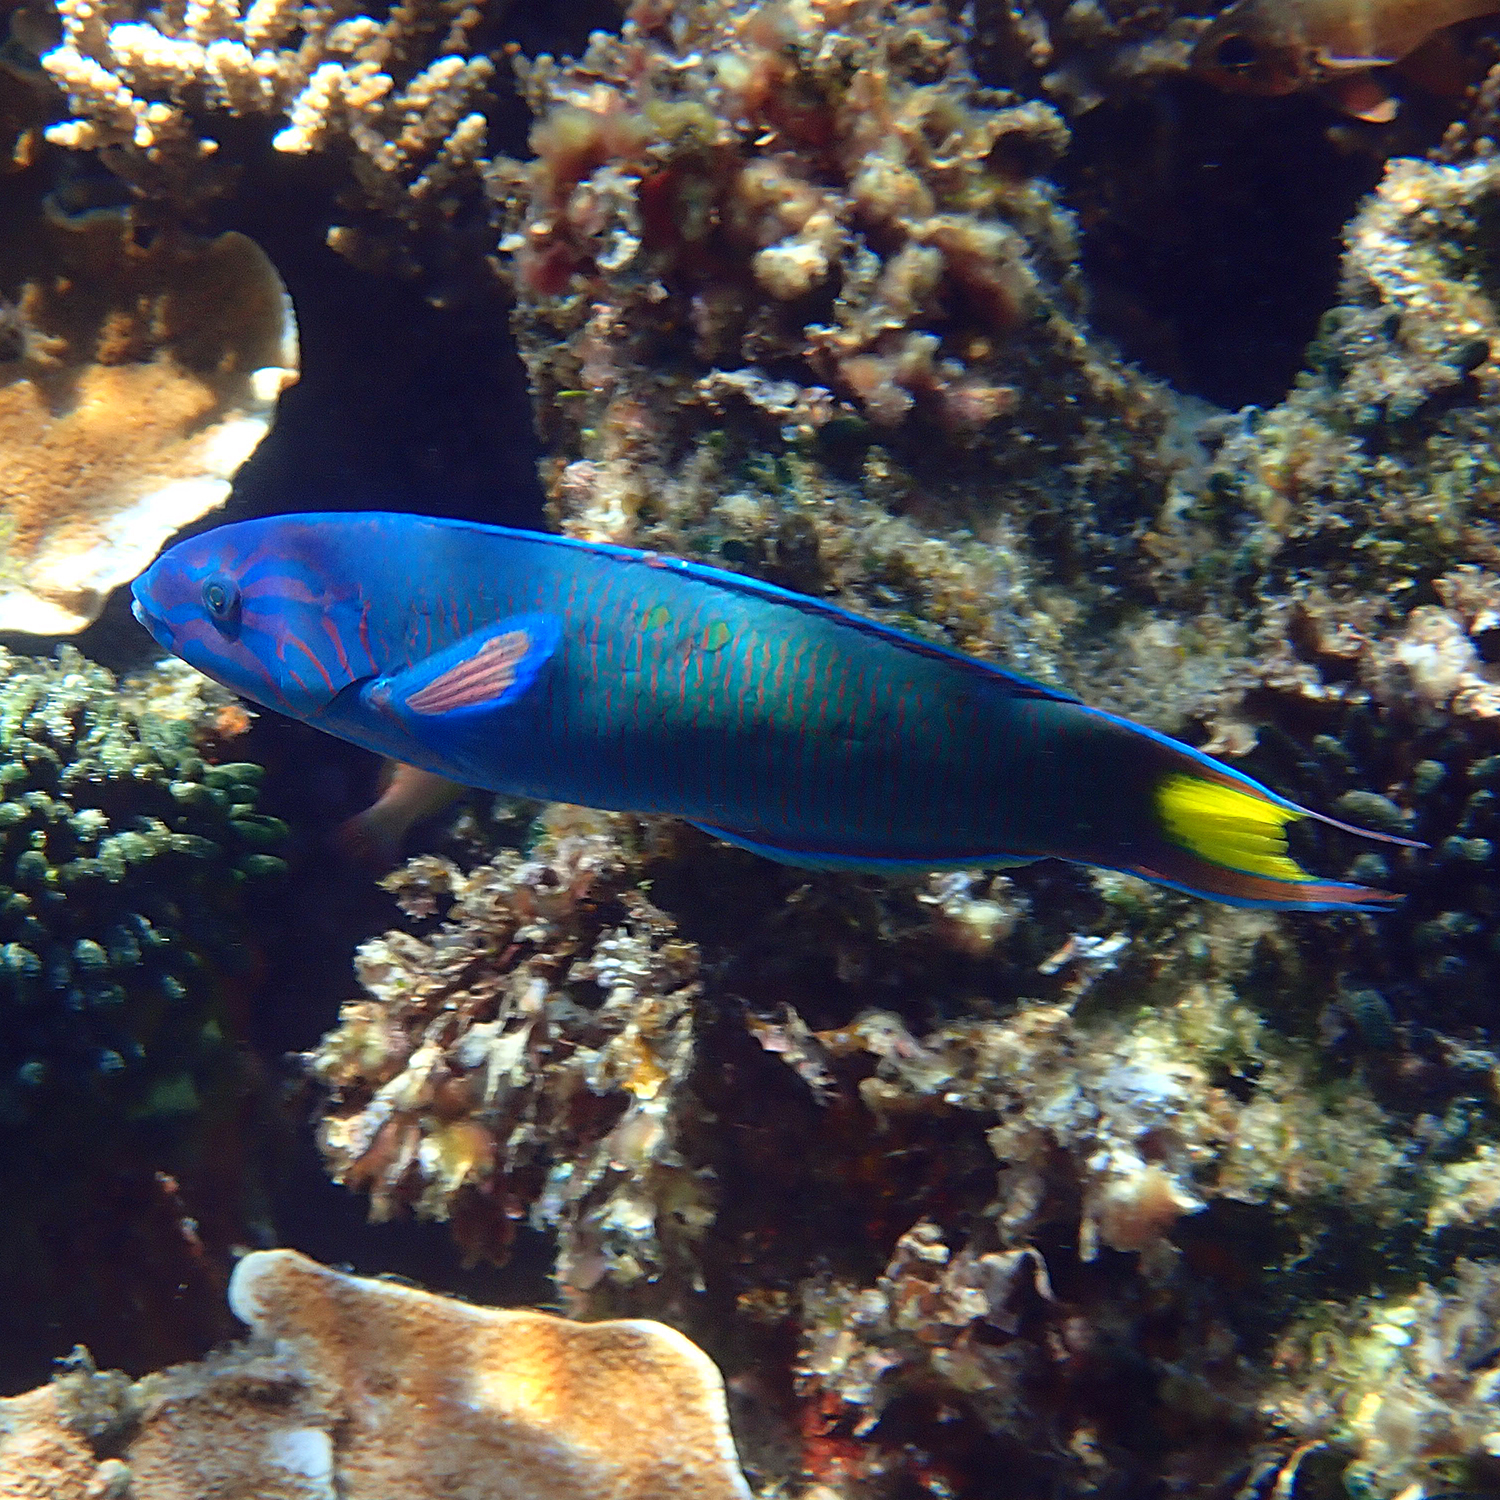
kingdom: Animalia
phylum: Chordata
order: Perciformes
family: Labridae
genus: Thalassoma
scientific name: Thalassoma lunare
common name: Blue wrasse
